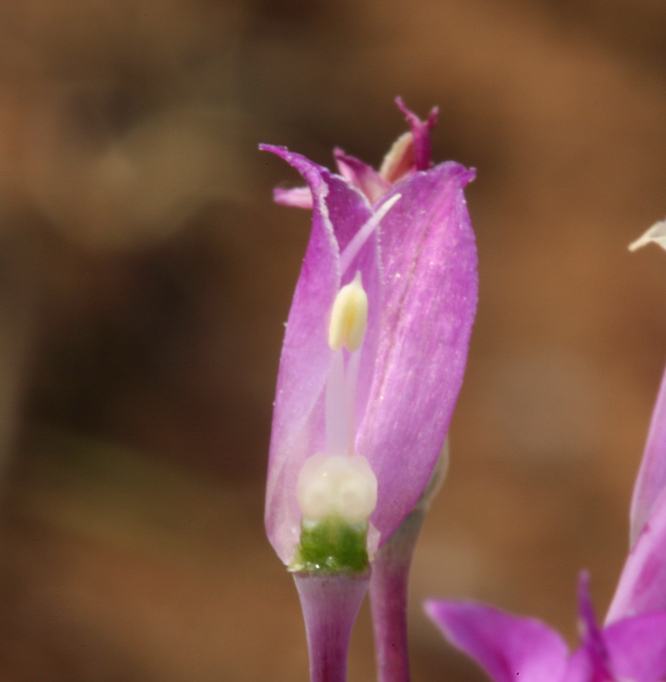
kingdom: Plantae
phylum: Tracheophyta
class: Liliopsida
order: Asparagales
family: Amaryllidaceae
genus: Allium
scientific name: Allium acuminatum
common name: Hooker's onion
